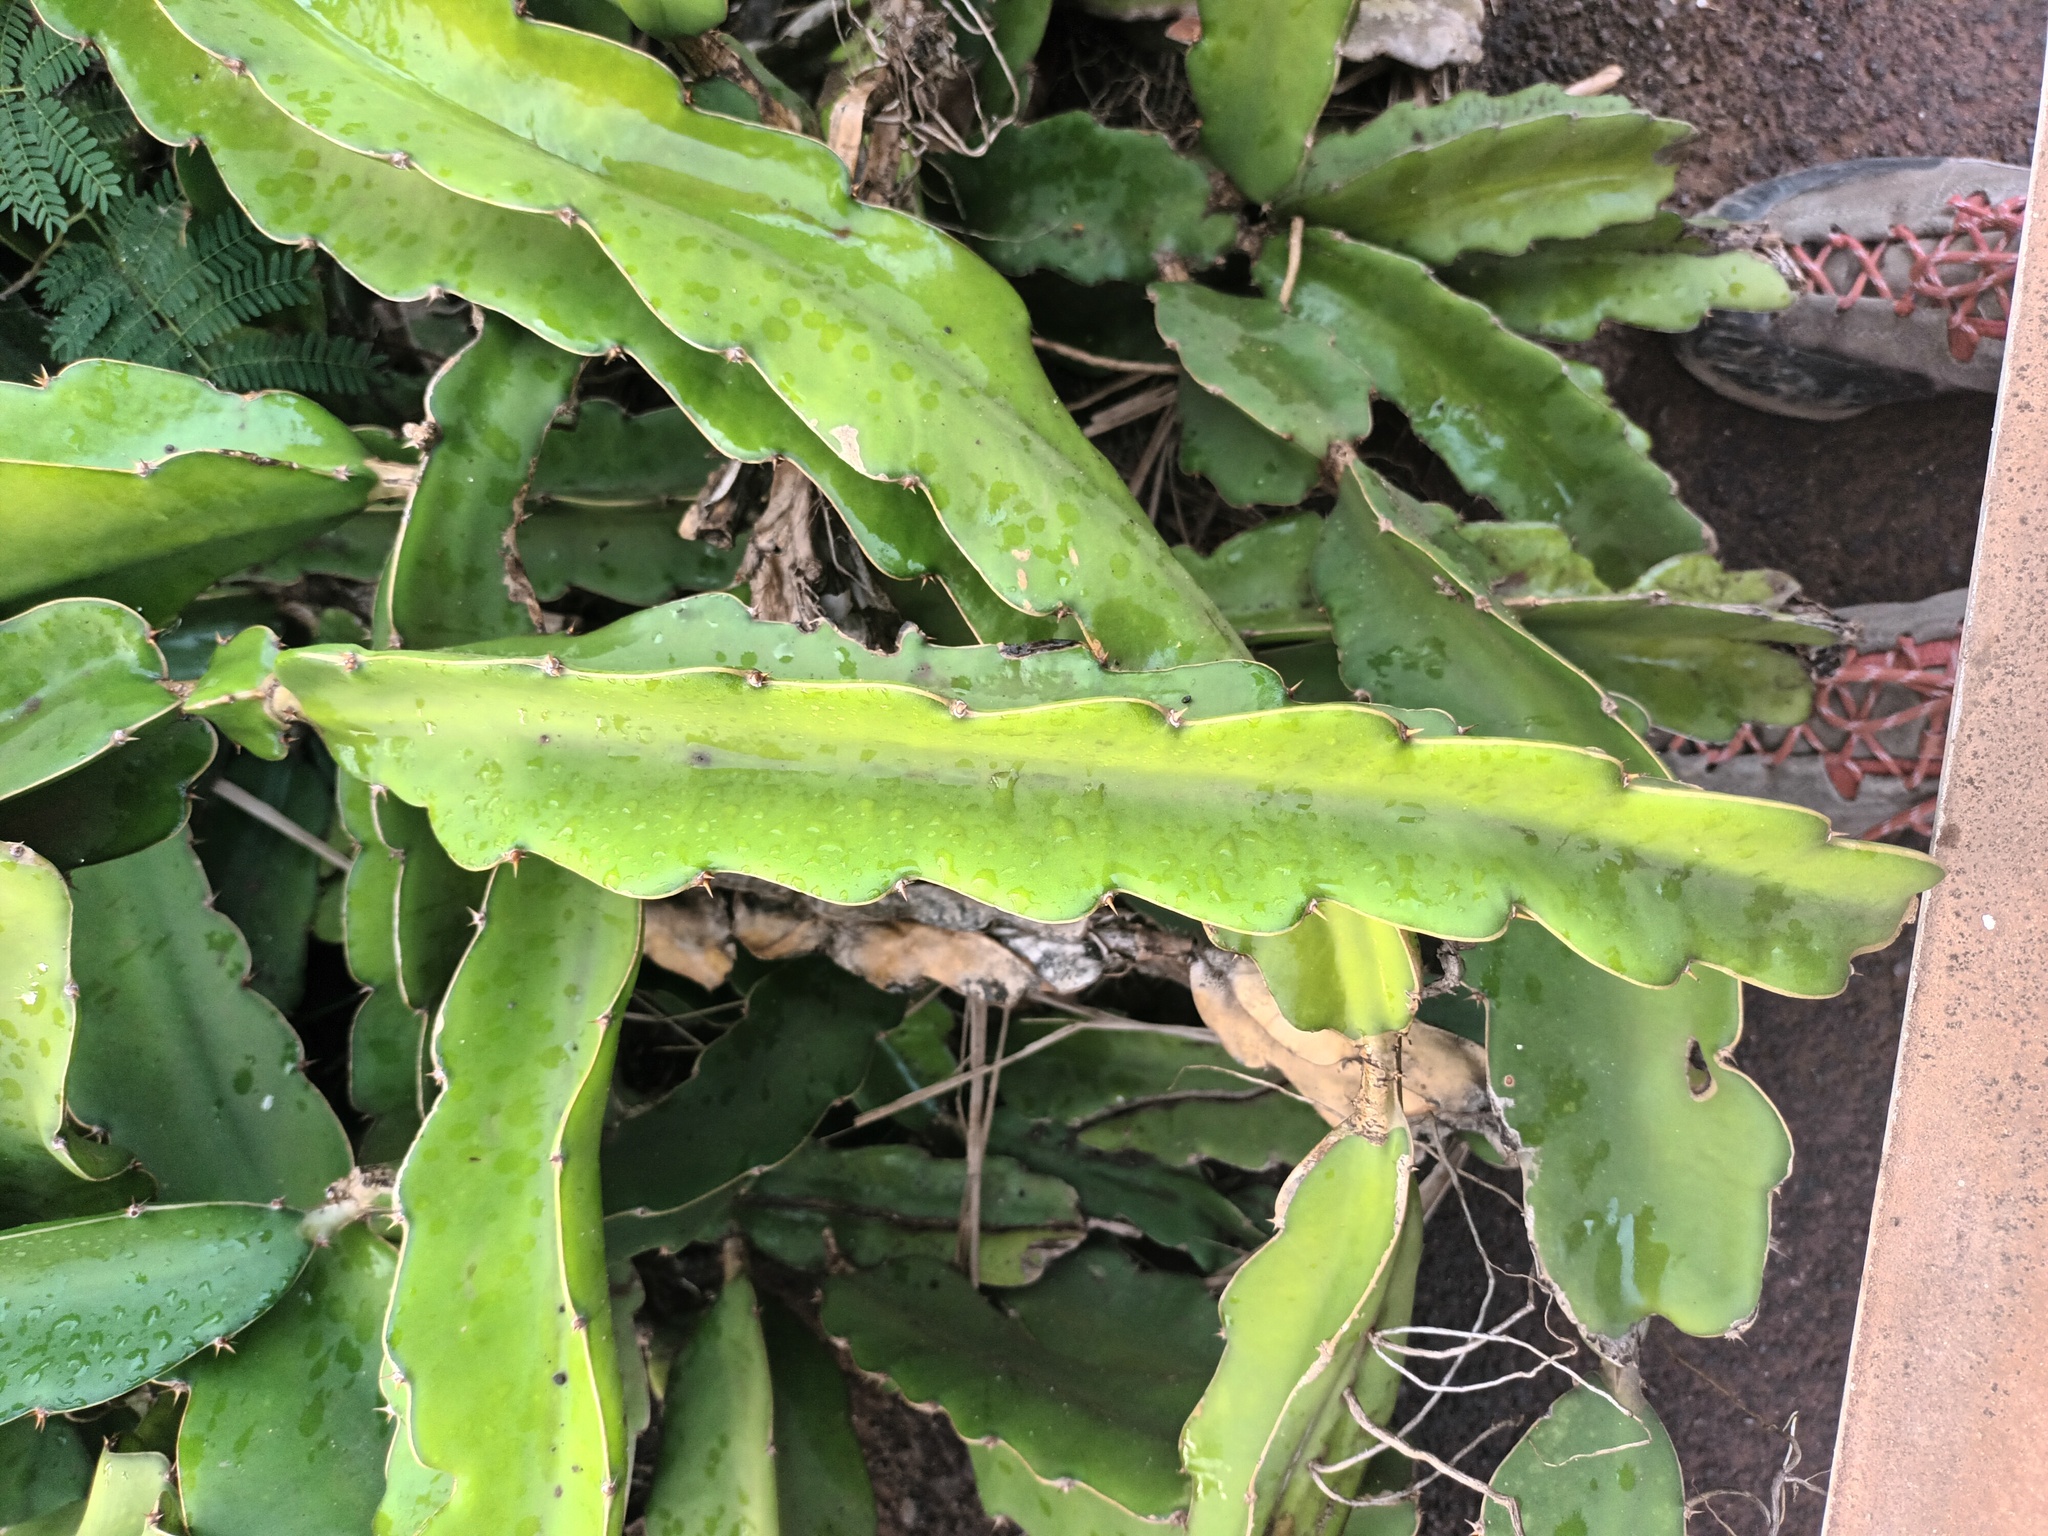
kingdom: Plantae
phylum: Tracheophyta
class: Magnoliopsida
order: Caryophyllales
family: Cactaceae
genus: Selenicereus
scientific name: Selenicereus undatus
